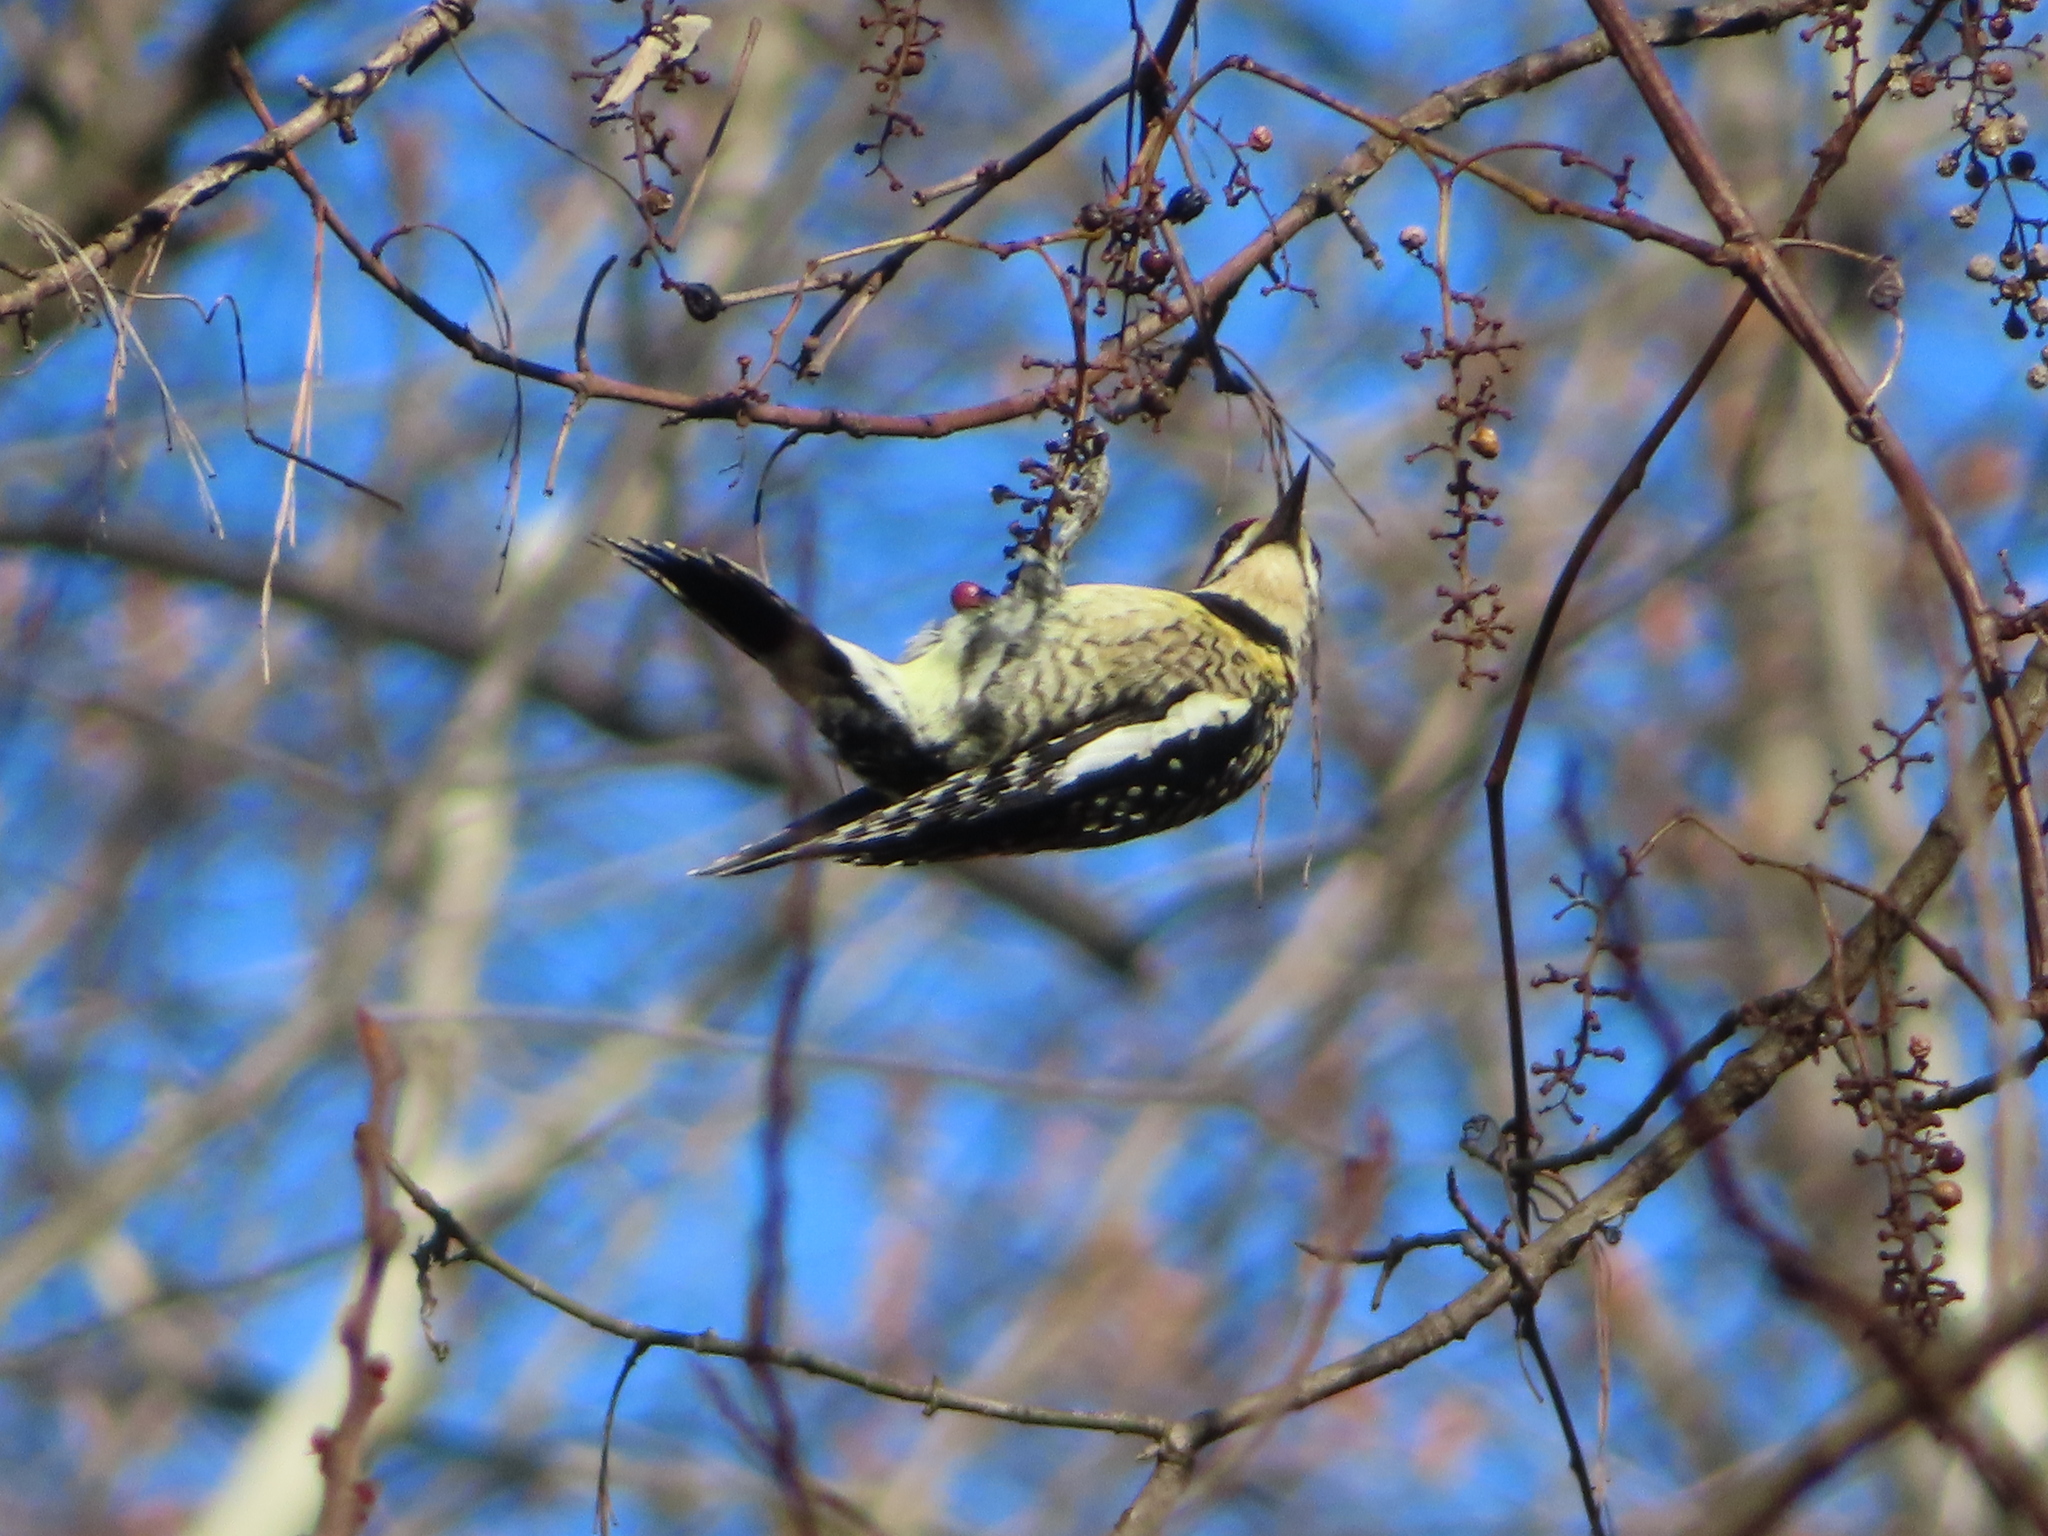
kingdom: Animalia
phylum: Chordata
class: Aves
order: Piciformes
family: Picidae
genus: Sphyrapicus
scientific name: Sphyrapicus varius
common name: Yellow-bellied sapsucker
